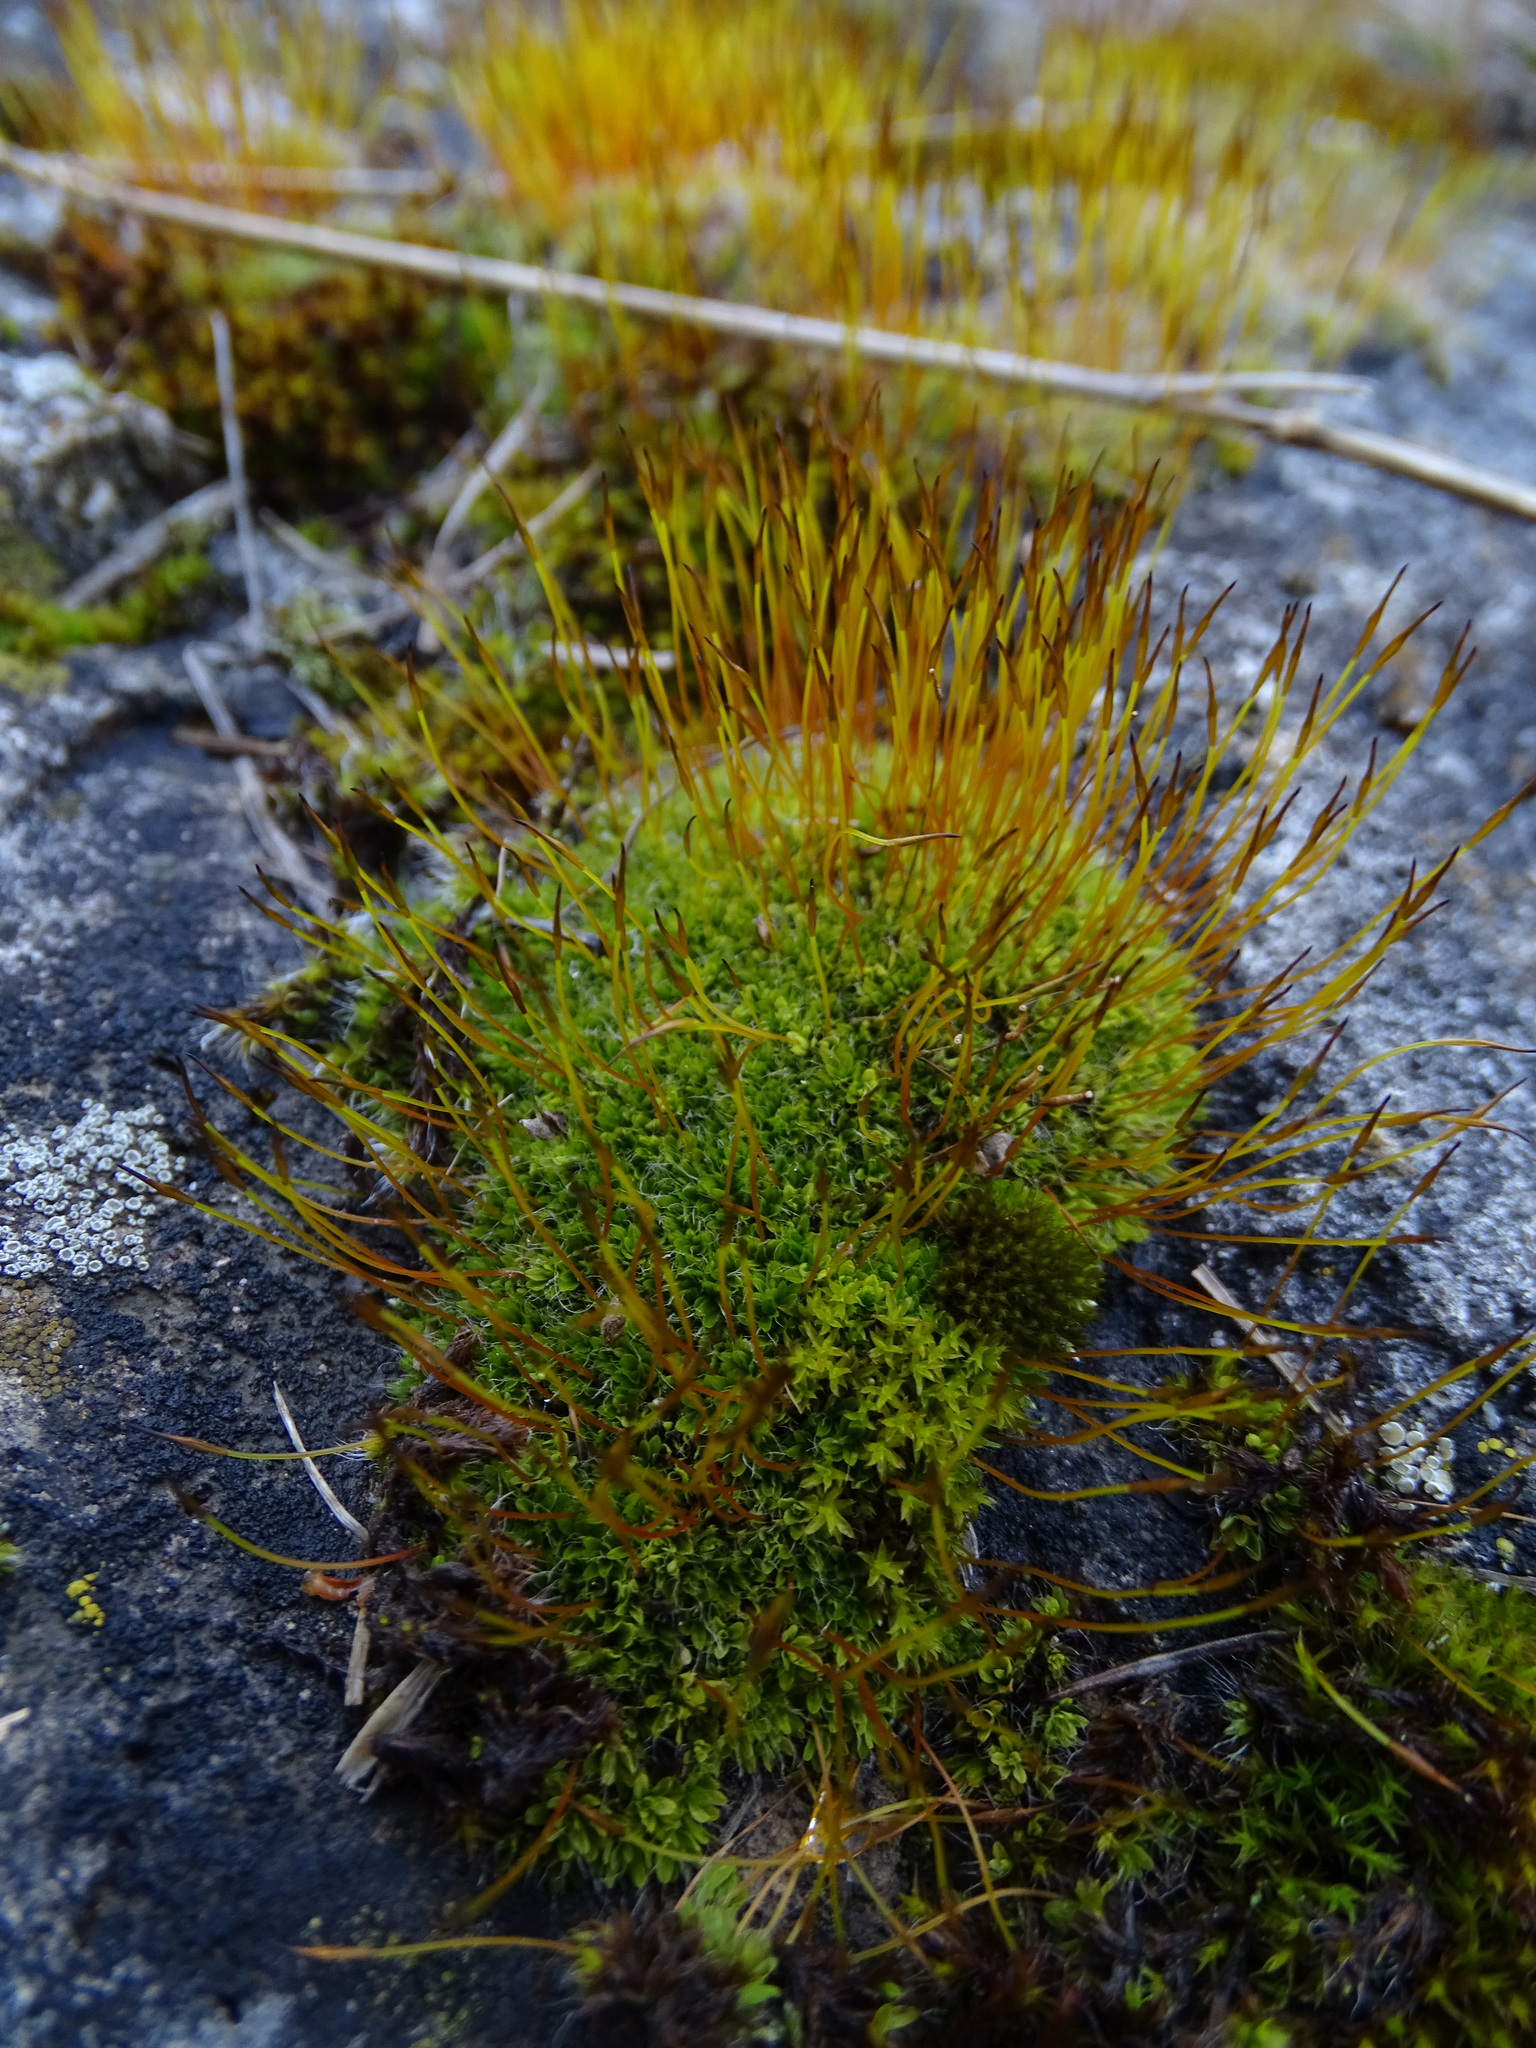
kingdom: Plantae
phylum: Bryophyta
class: Bryopsida
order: Pottiales
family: Pottiaceae
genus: Tortula
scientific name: Tortula muralis
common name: Wall screw-moss
